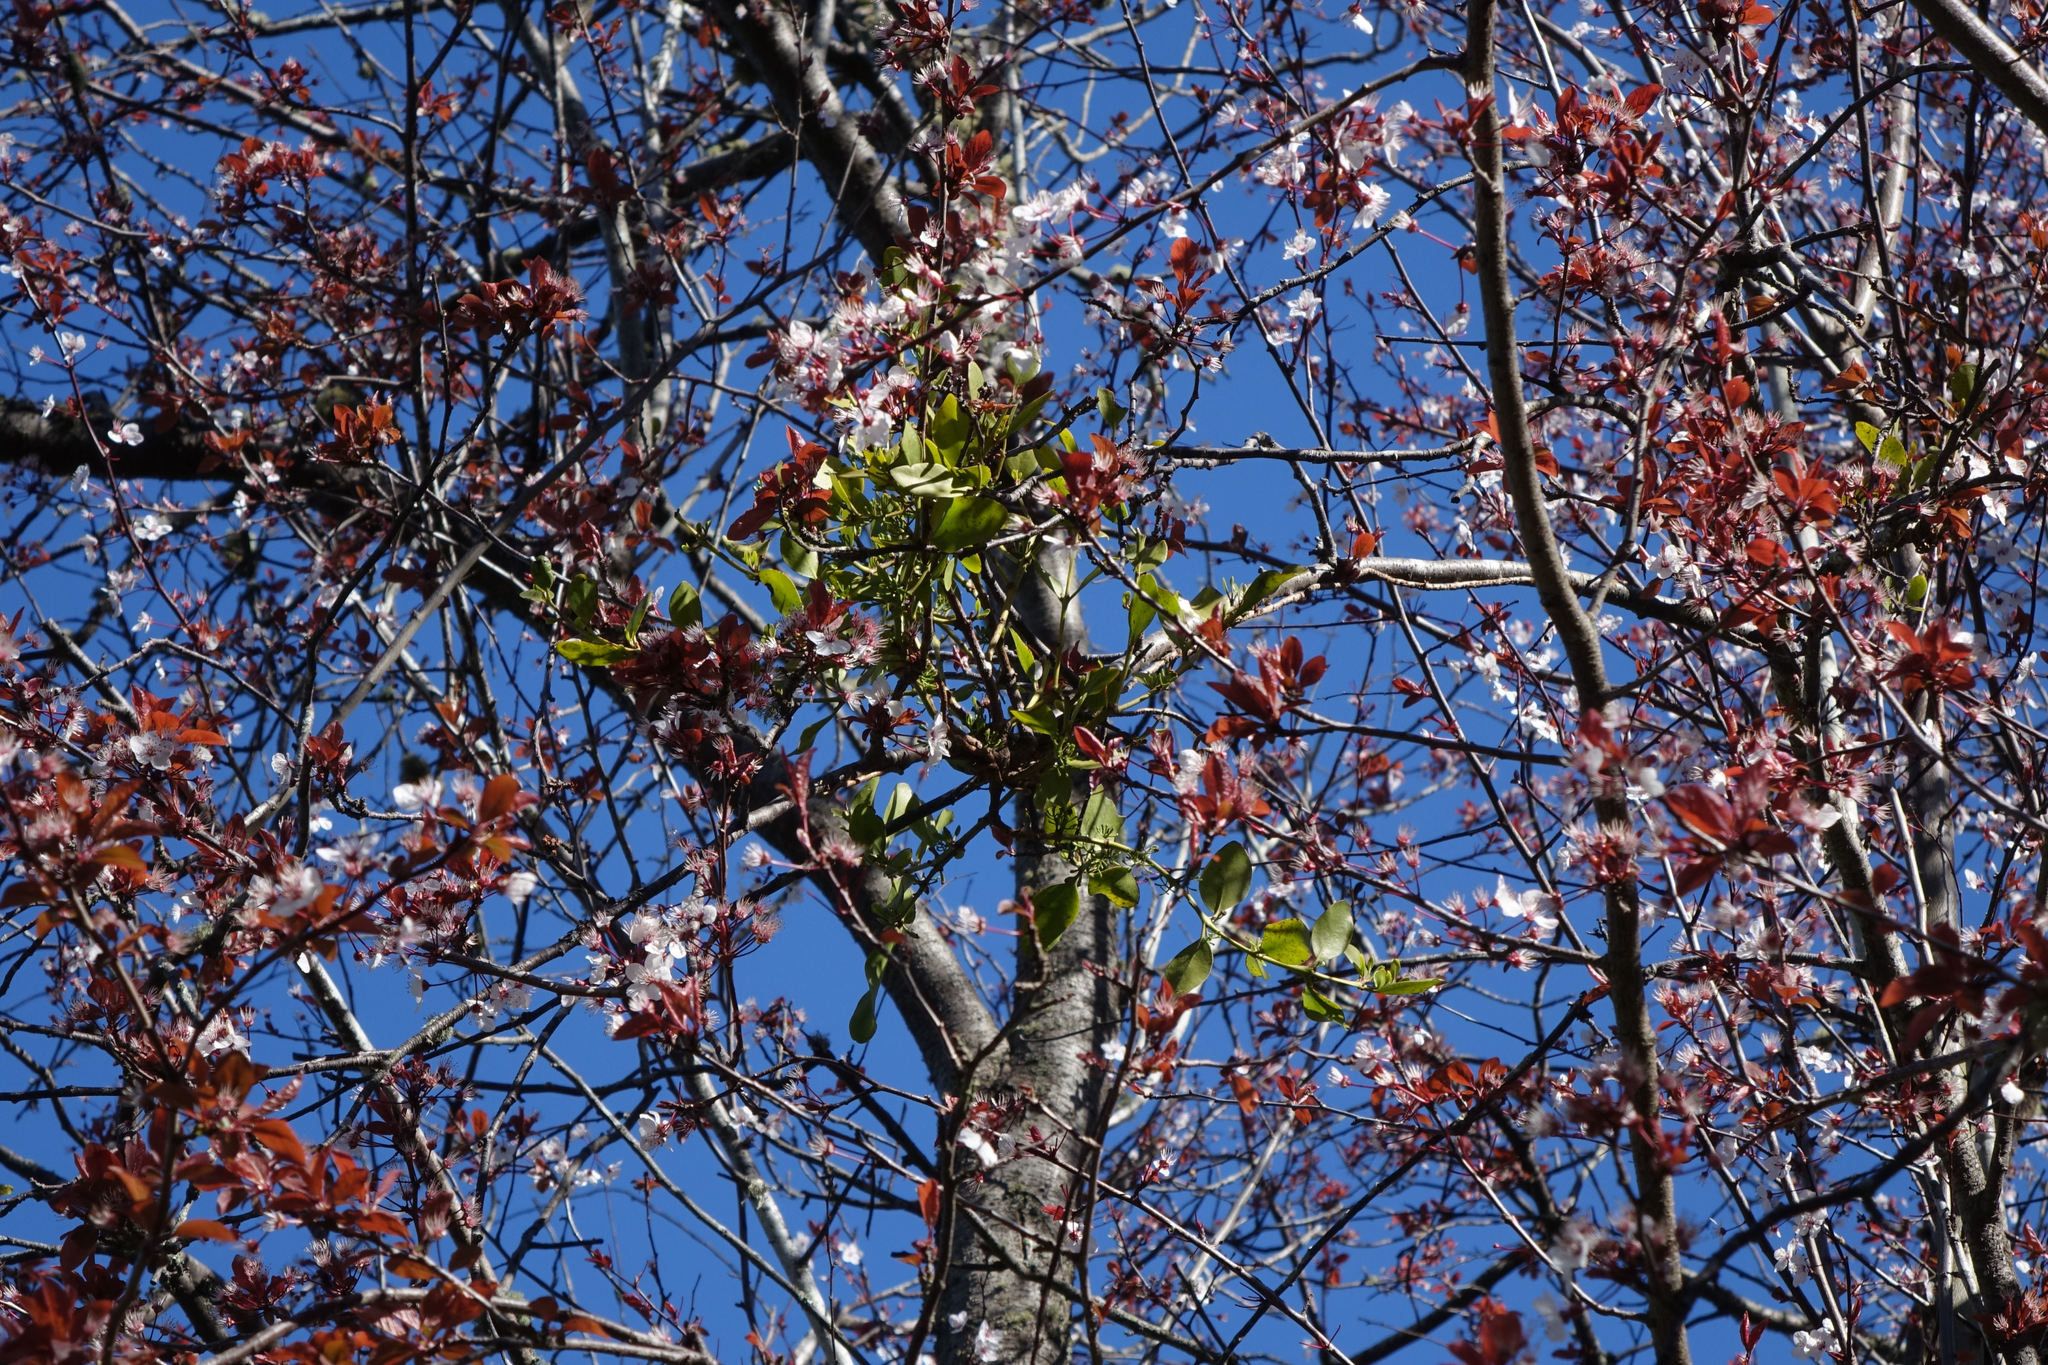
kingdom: Plantae
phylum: Tracheophyta
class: Magnoliopsida
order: Santalales
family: Loranthaceae
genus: Ileostylus
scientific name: Ileostylus micranthus
